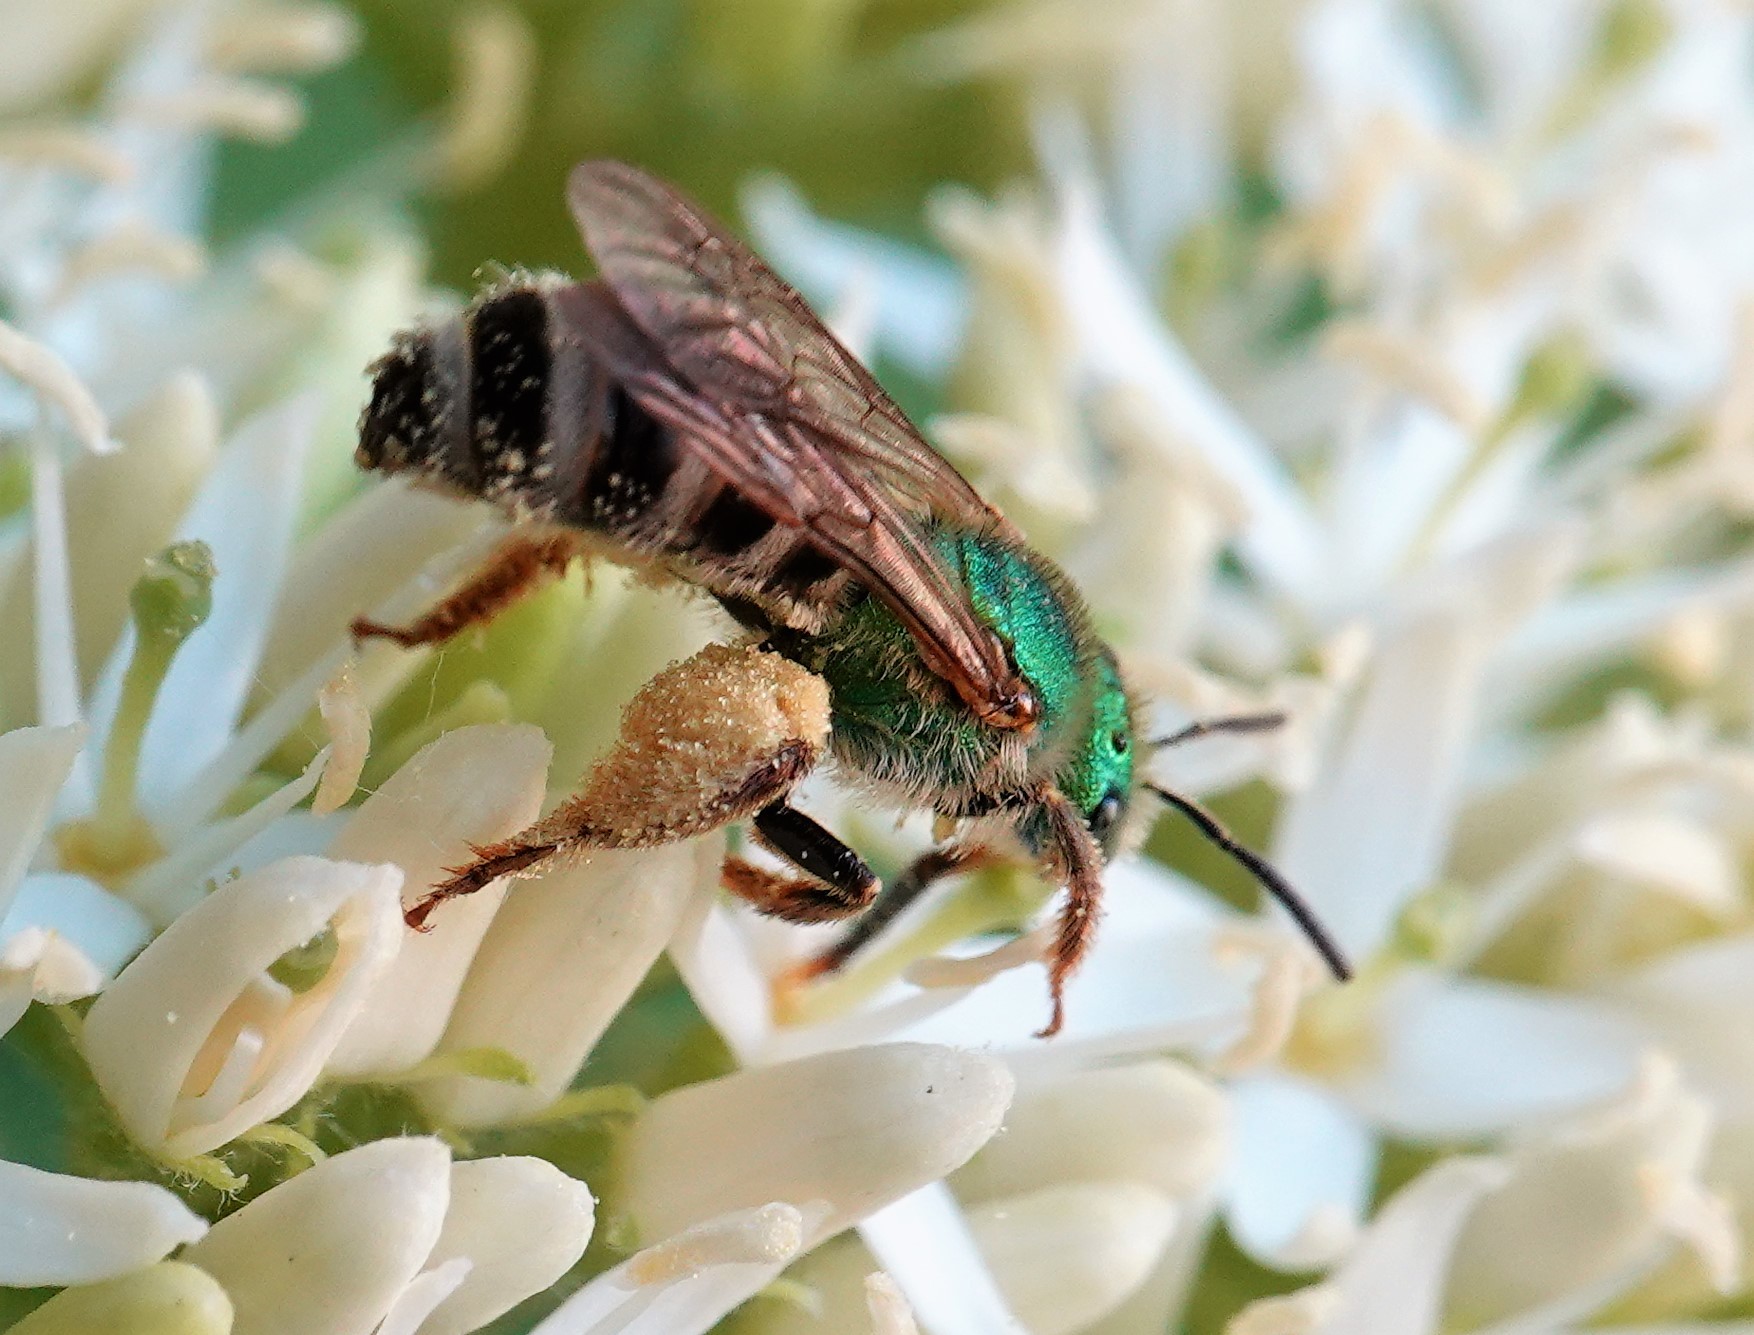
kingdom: Animalia
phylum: Arthropoda
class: Insecta
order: Hymenoptera
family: Halictidae
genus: Agapostemon
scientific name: Agapostemon virescens
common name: Bicolored striped sweat bee
